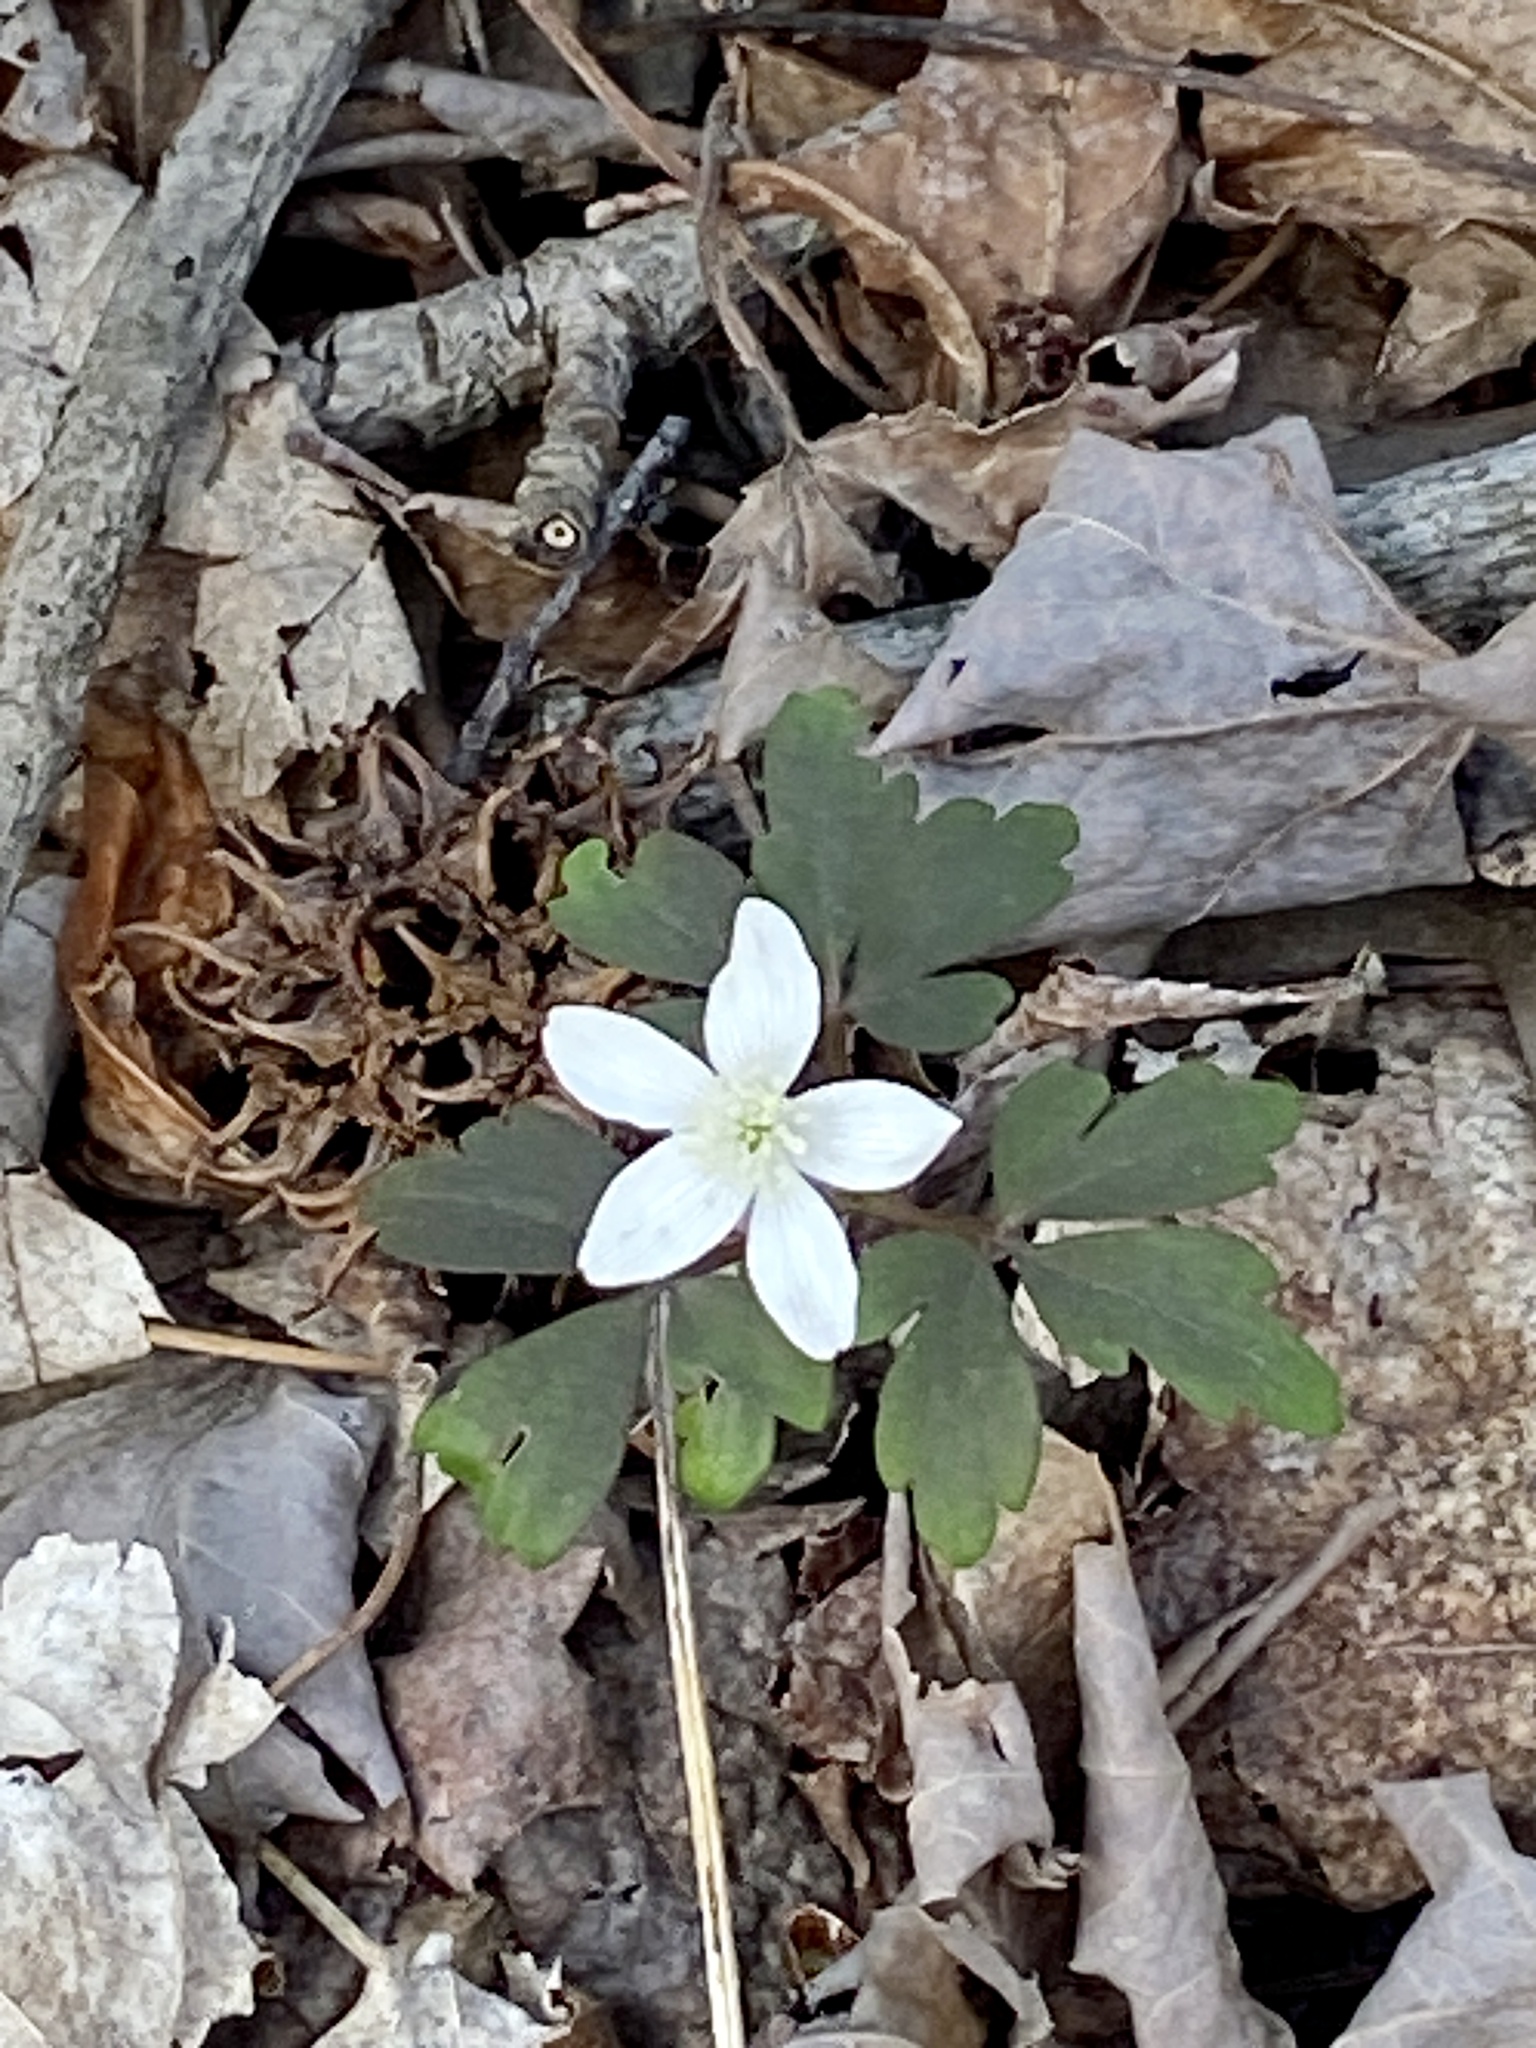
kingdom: Plantae
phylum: Tracheophyta
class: Magnoliopsida
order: Ranunculales
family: Ranunculaceae
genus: Anemone
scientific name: Anemone quinquefolia
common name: Wood anemone
